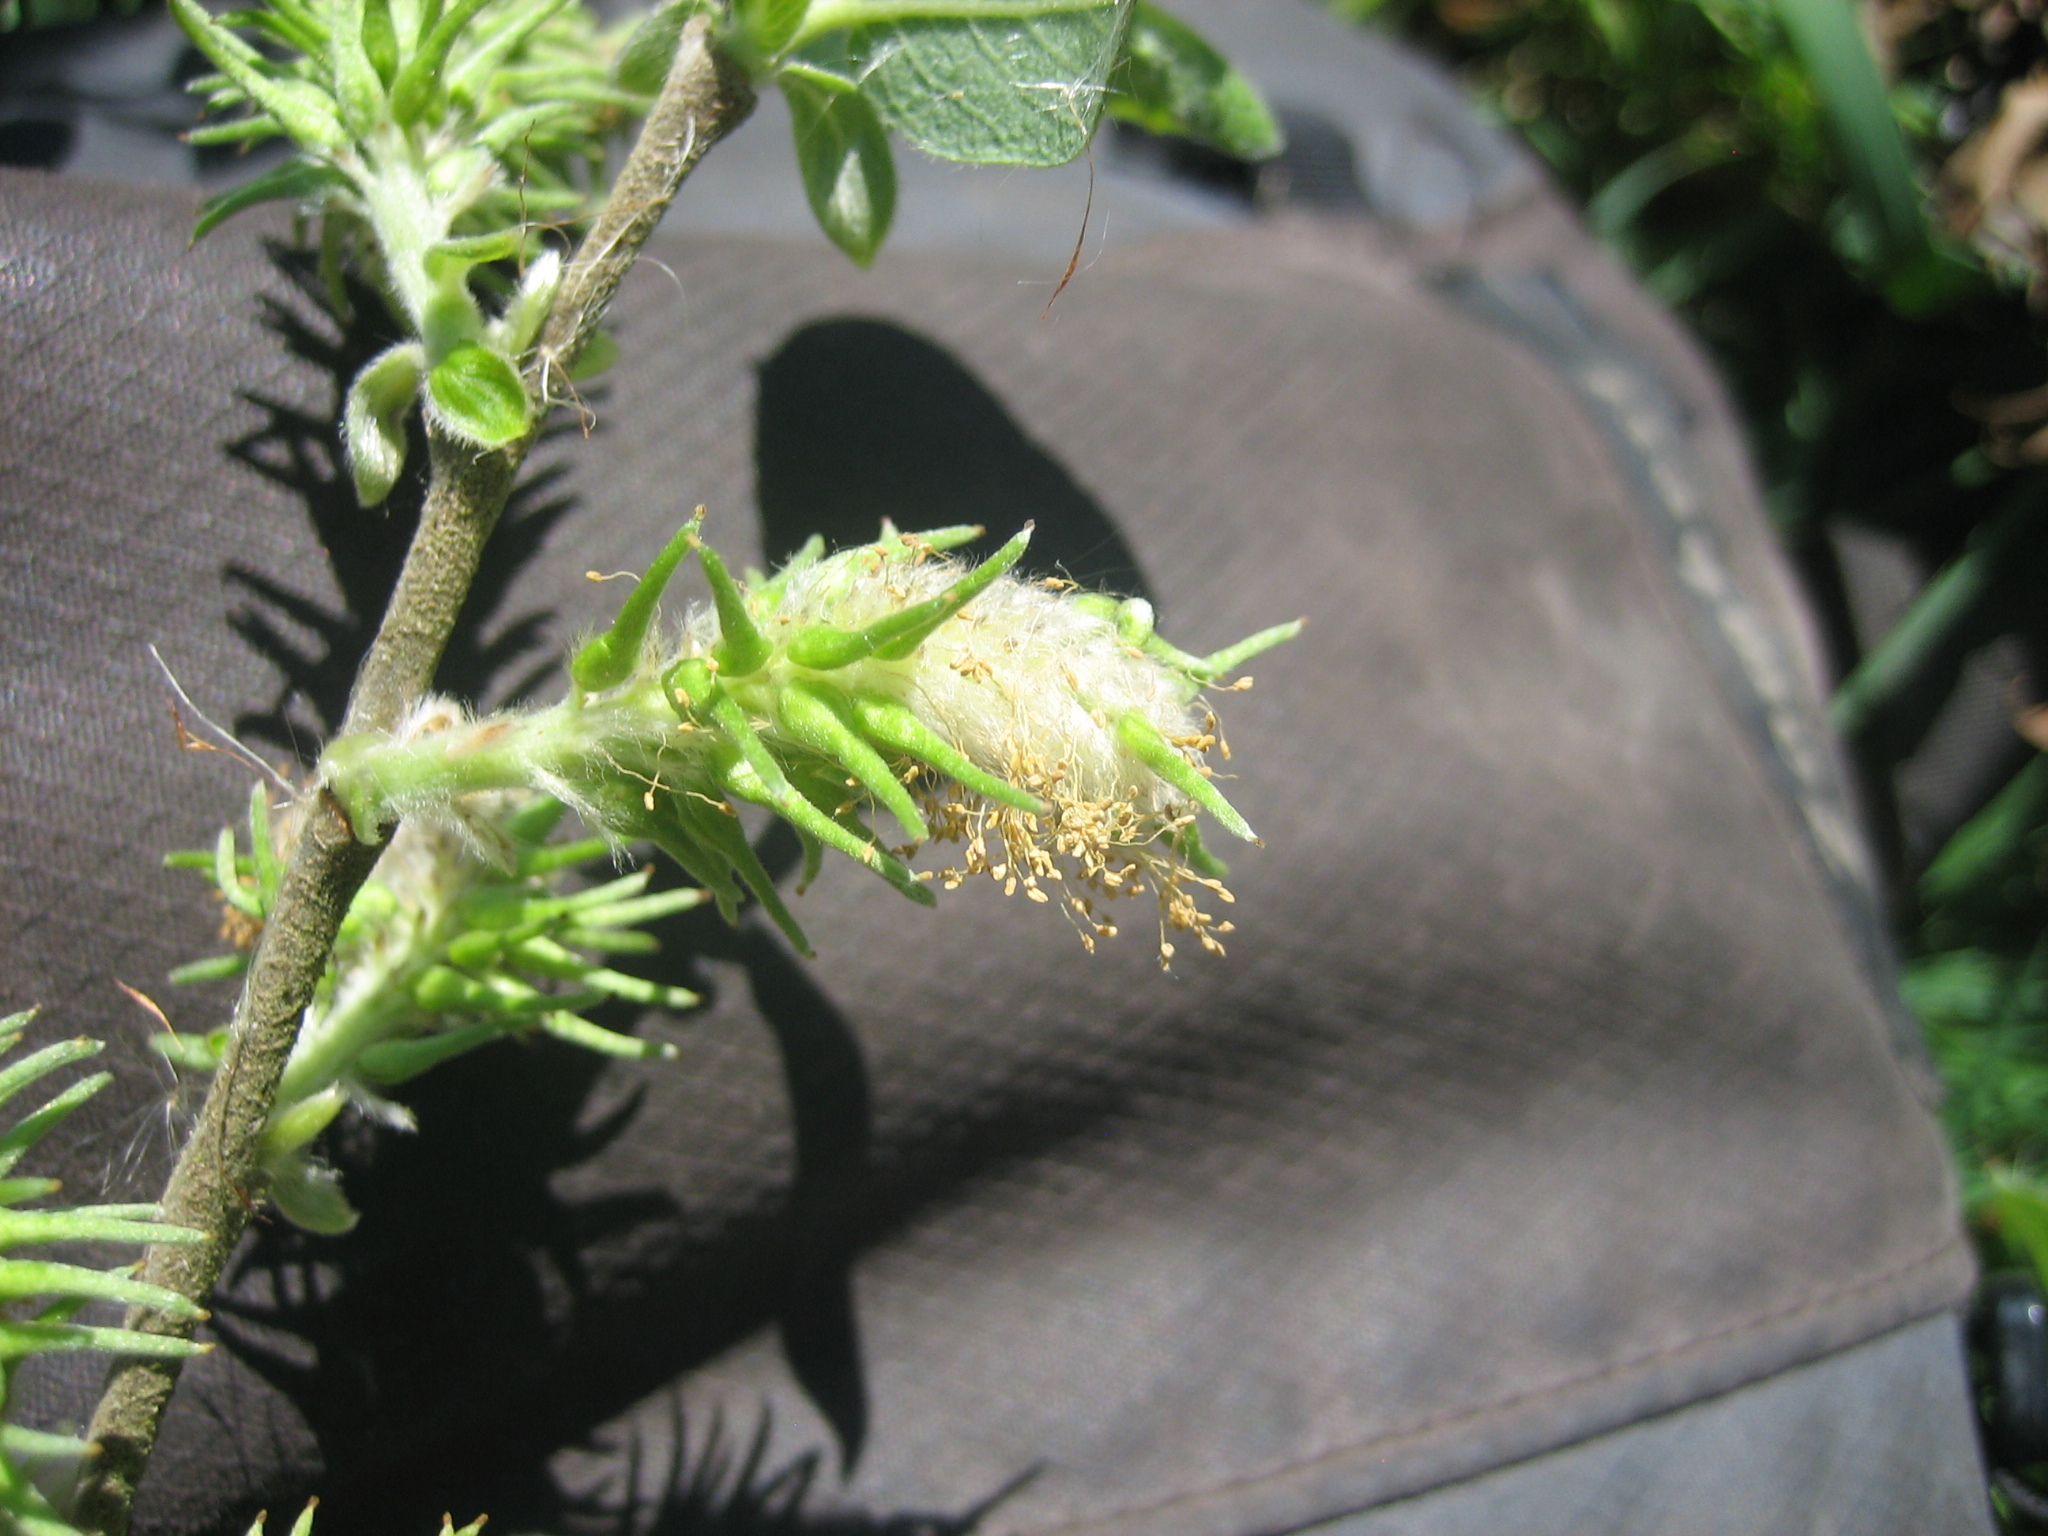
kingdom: Plantae
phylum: Tracheophyta
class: Magnoliopsida
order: Malpighiales
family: Salicaceae
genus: Salix
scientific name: Salix cinerea
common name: Common sallow
